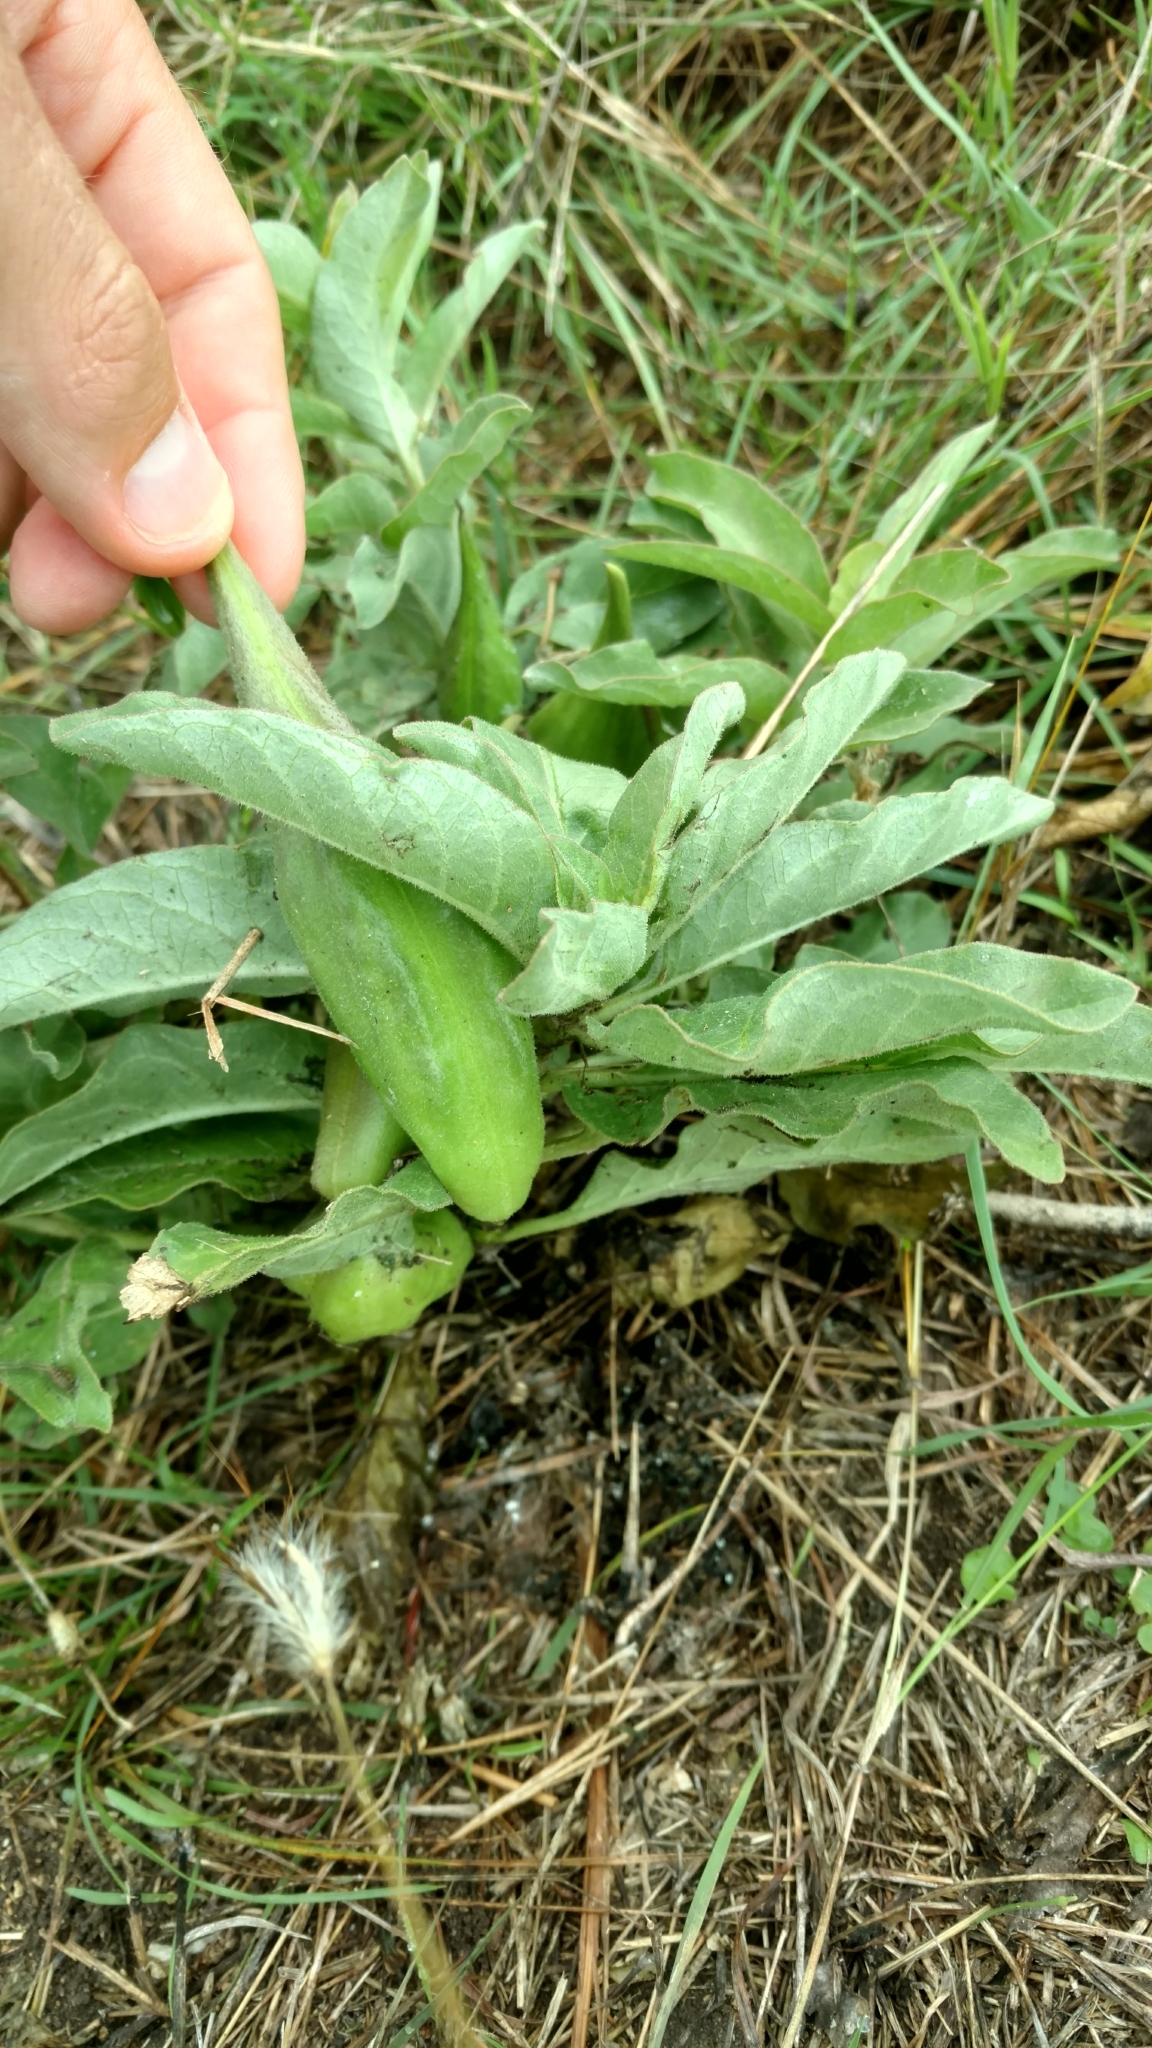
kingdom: Plantae
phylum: Tracheophyta
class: Magnoliopsida
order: Gentianales
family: Apocynaceae
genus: Asclepias
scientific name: Asclepias oenotheroides
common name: Zizotes milkweed
